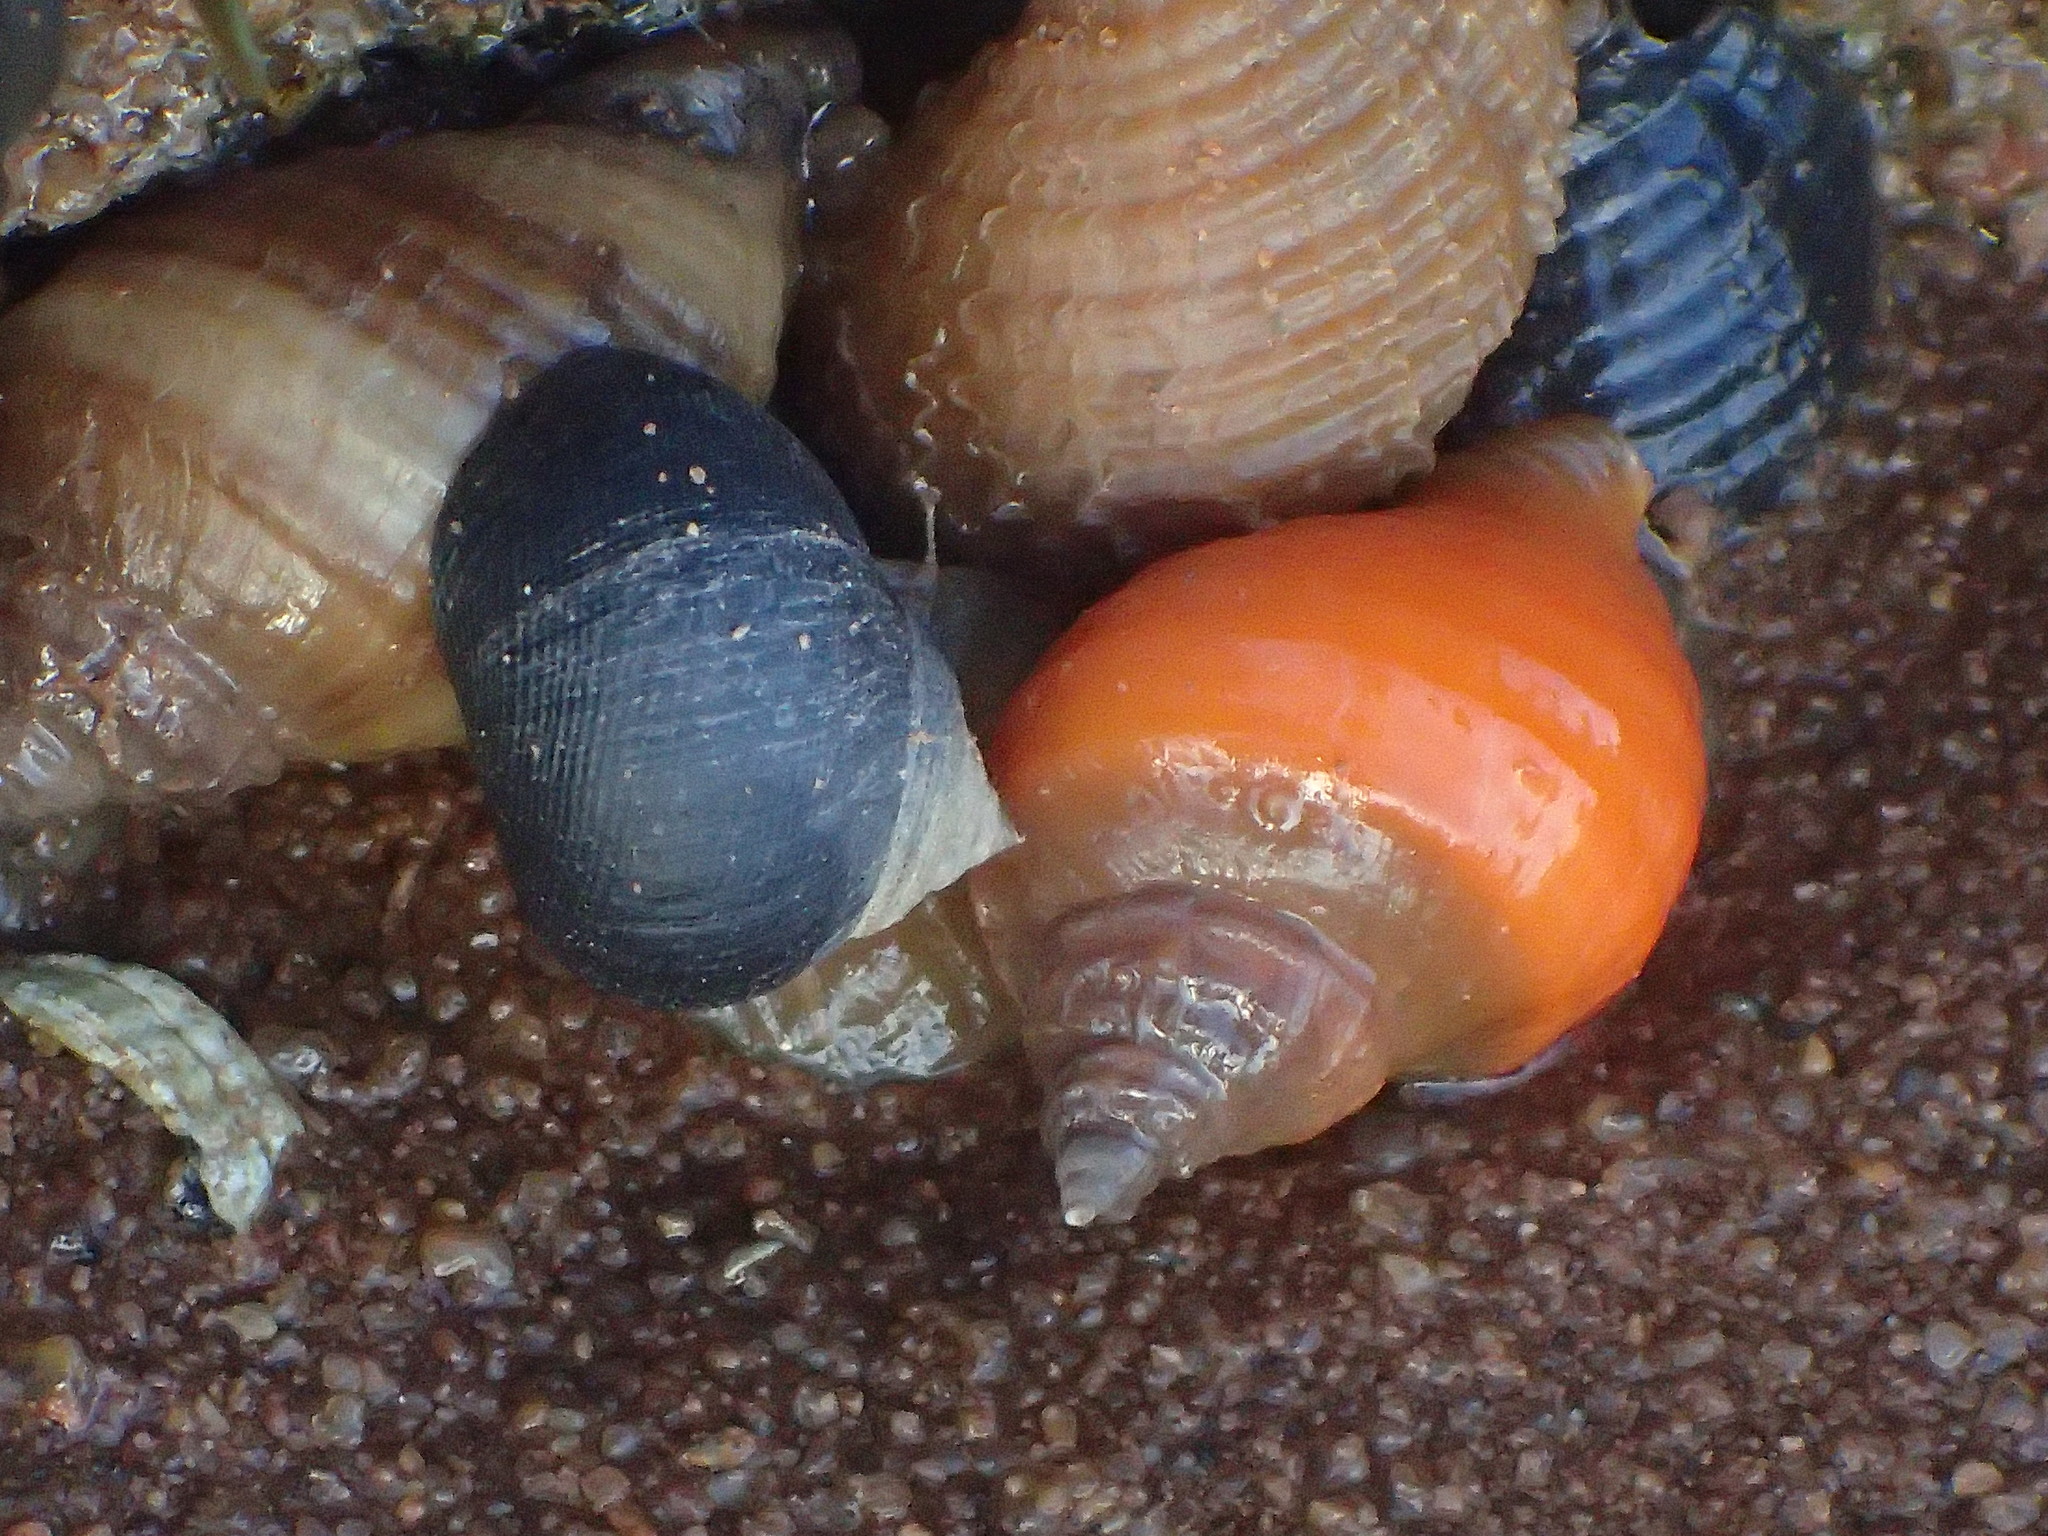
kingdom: Animalia
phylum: Mollusca
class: Gastropoda
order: Neogastropoda
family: Muricidae
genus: Nucella
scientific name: Nucella lapillus
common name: Dog whelk
